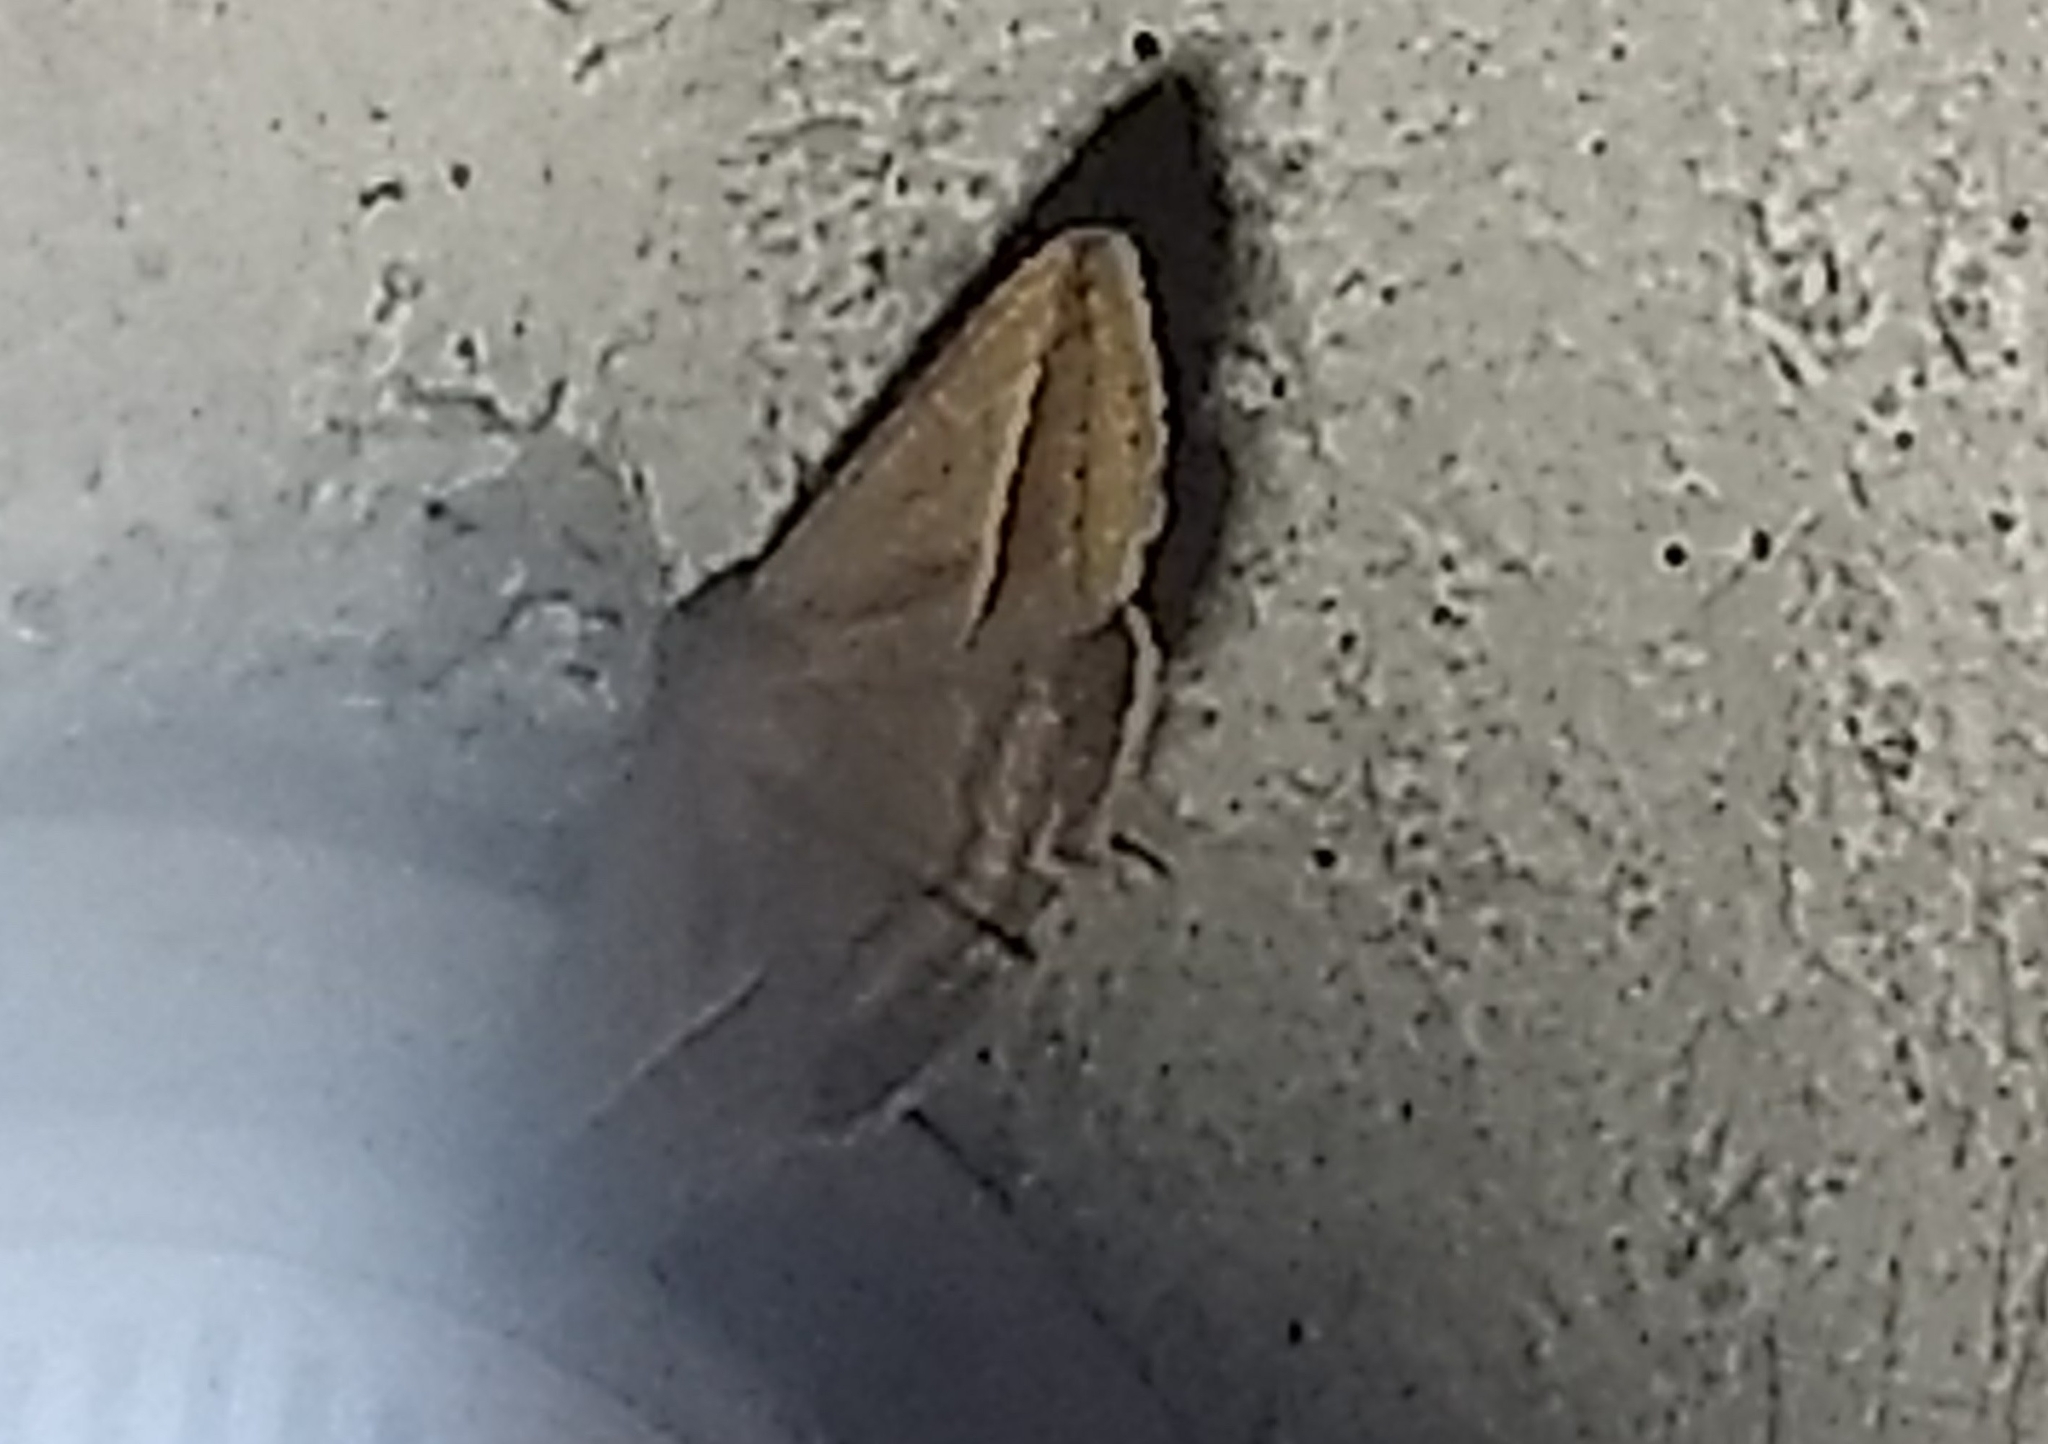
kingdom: Animalia
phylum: Arthropoda
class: Insecta
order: Lepidoptera
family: Erebidae
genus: Mocis
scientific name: Mocis frugalis
